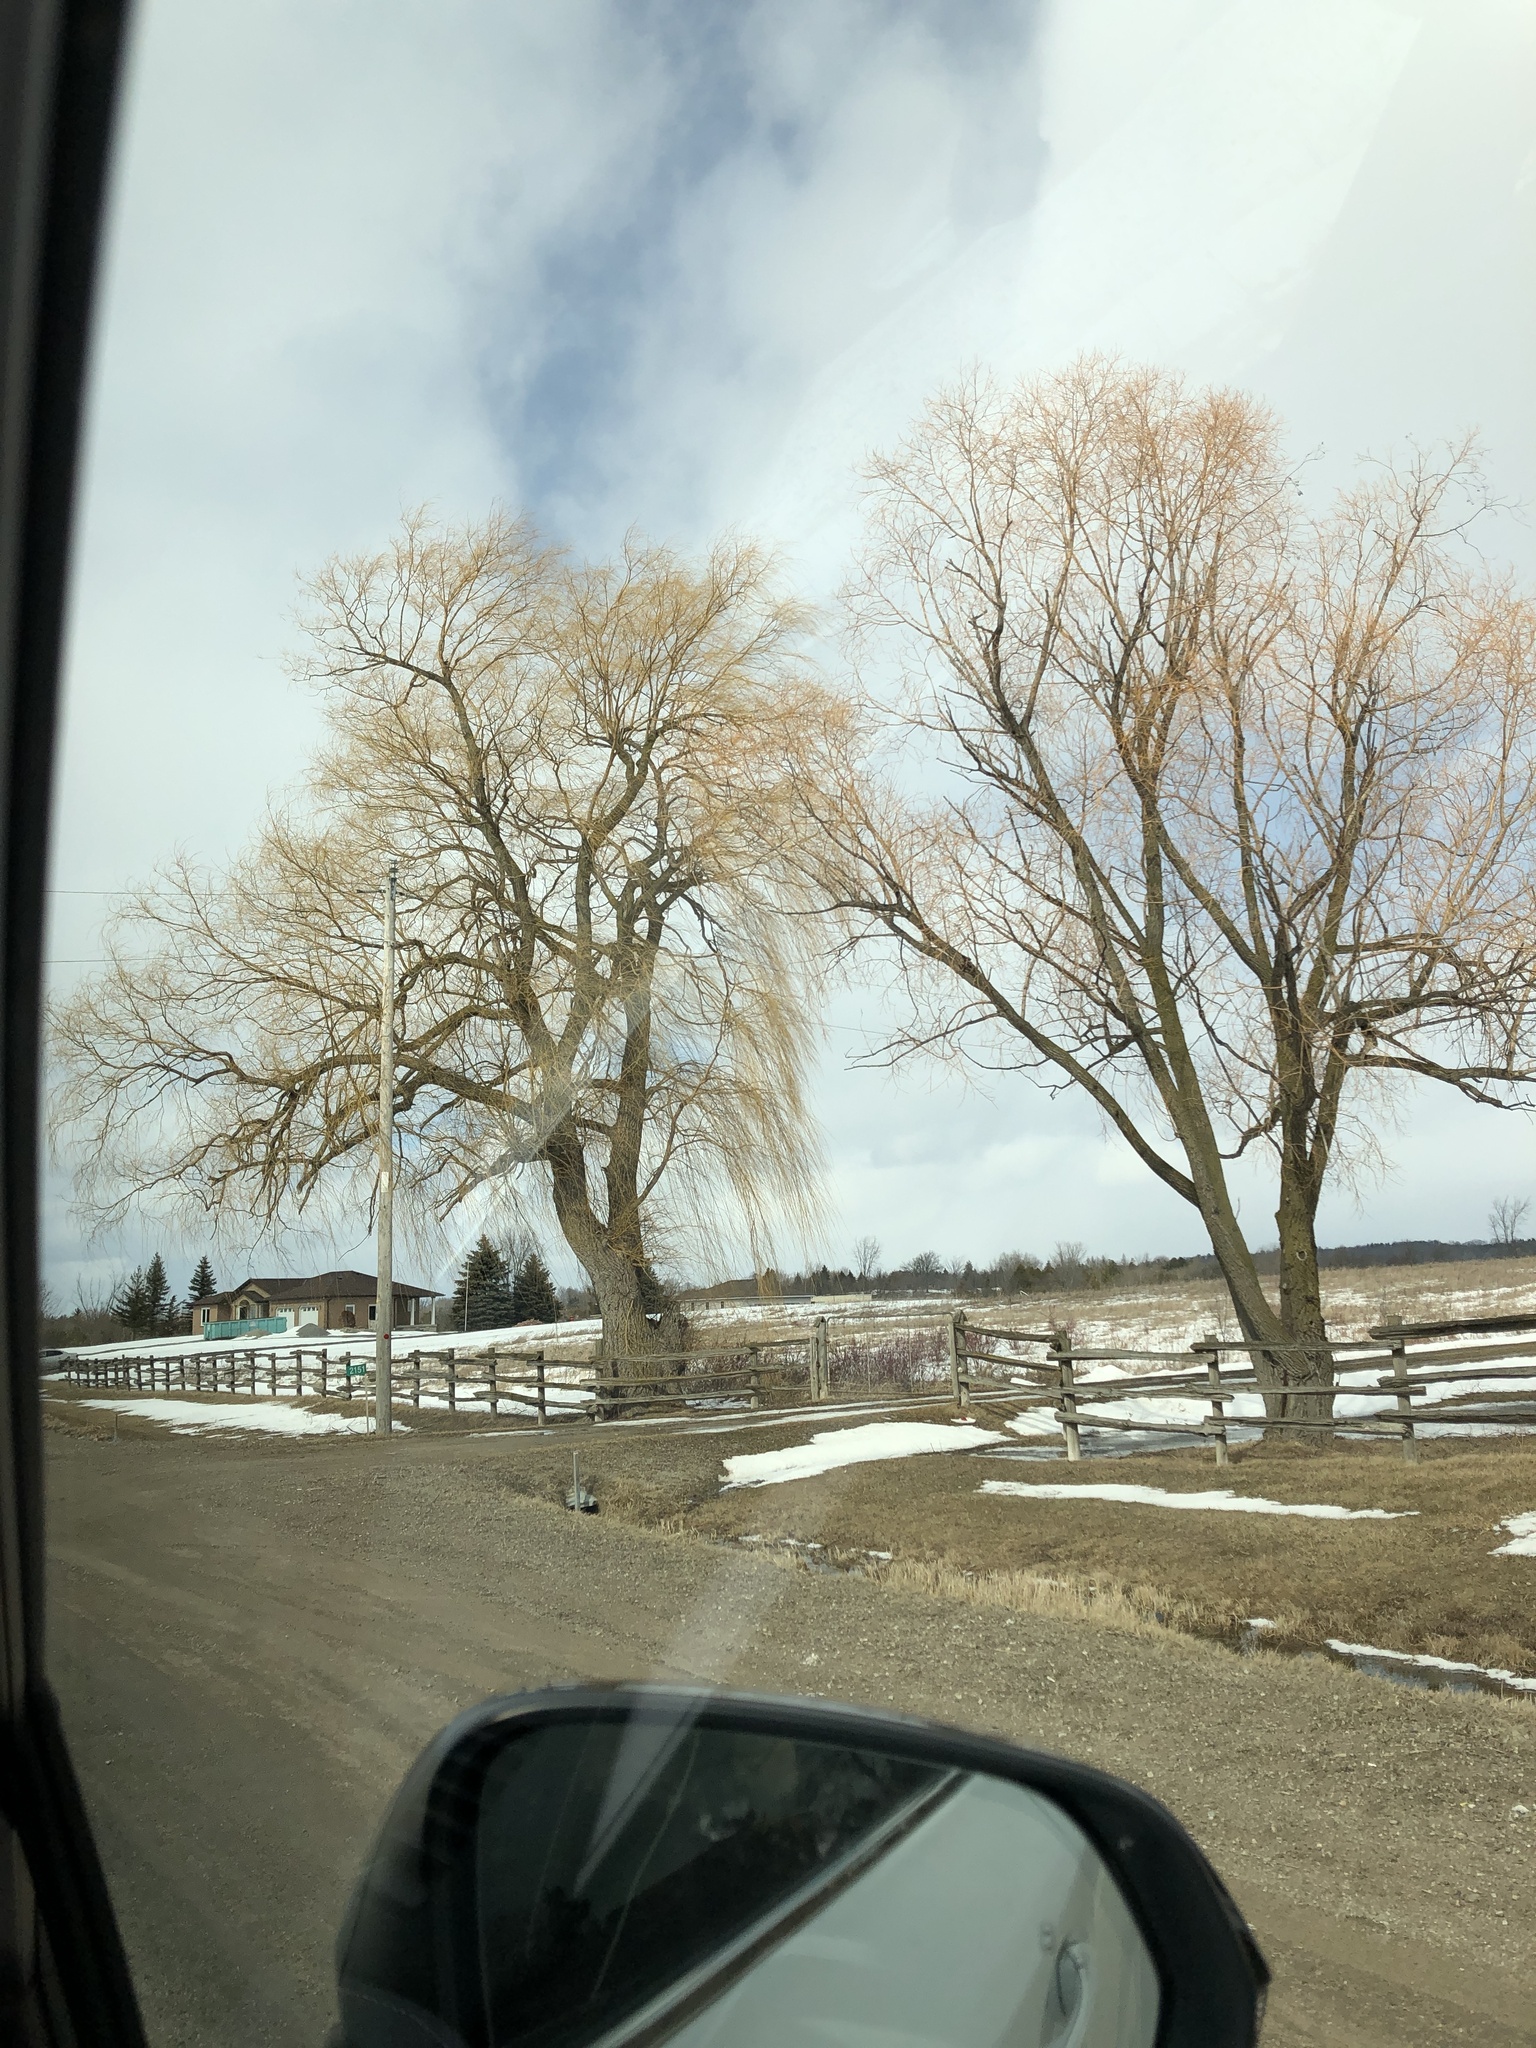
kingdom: Plantae
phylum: Tracheophyta
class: Magnoliopsida
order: Malpighiales
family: Salicaceae
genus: Salix
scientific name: Salix pendulina
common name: Wisconsin weeping willow
